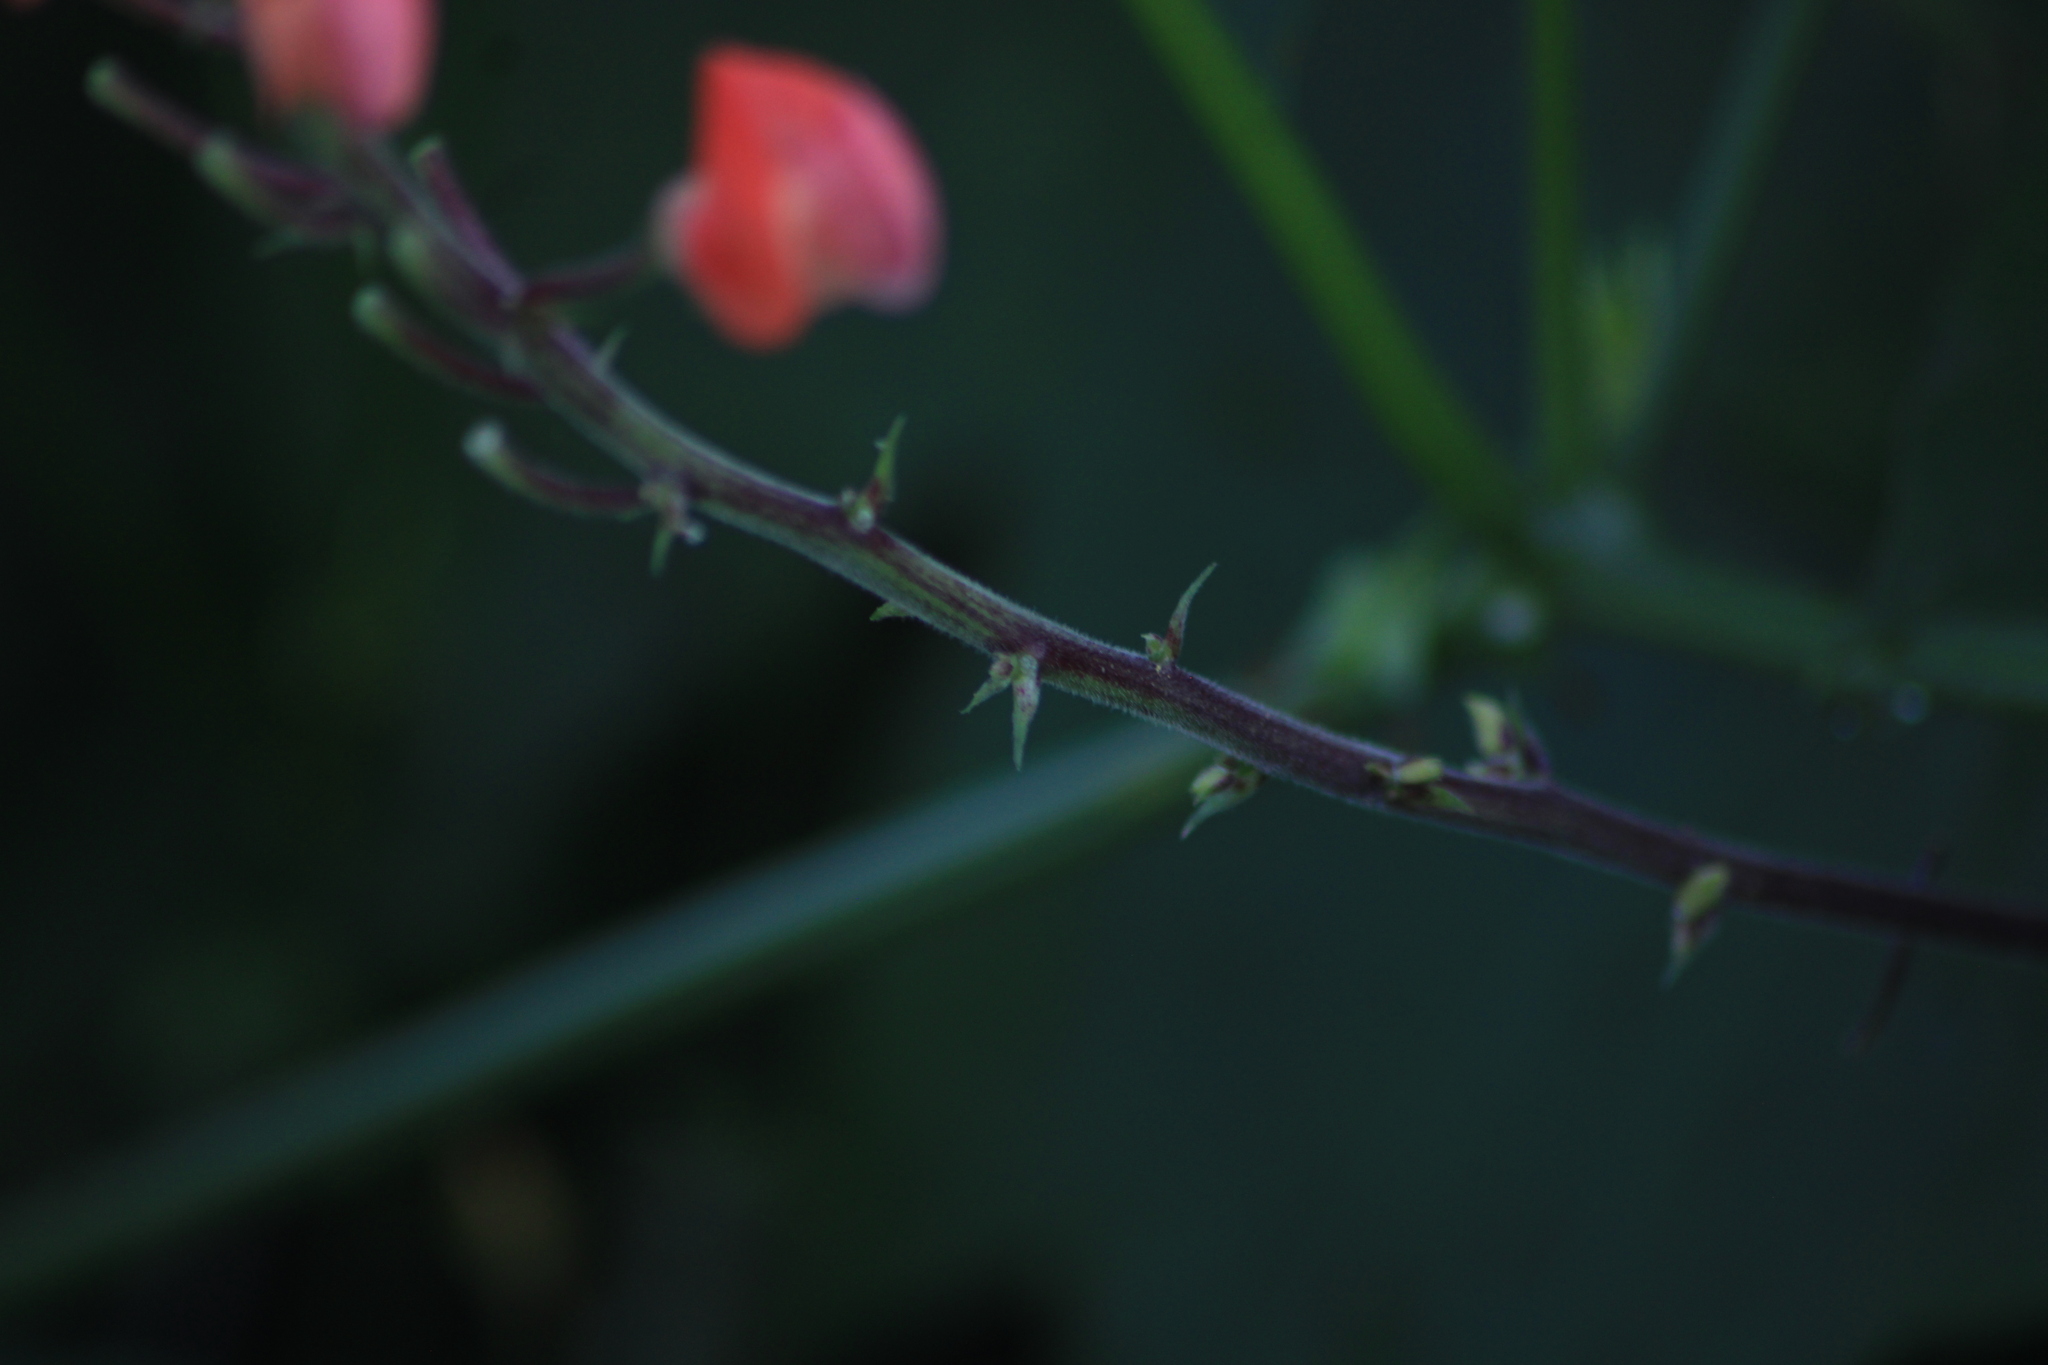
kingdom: Plantae
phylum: Tracheophyta
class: Magnoliopsida
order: Fabales
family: Fabaceae
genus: Phaseolus
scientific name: Phaseolus coccineus
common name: Runner bean
